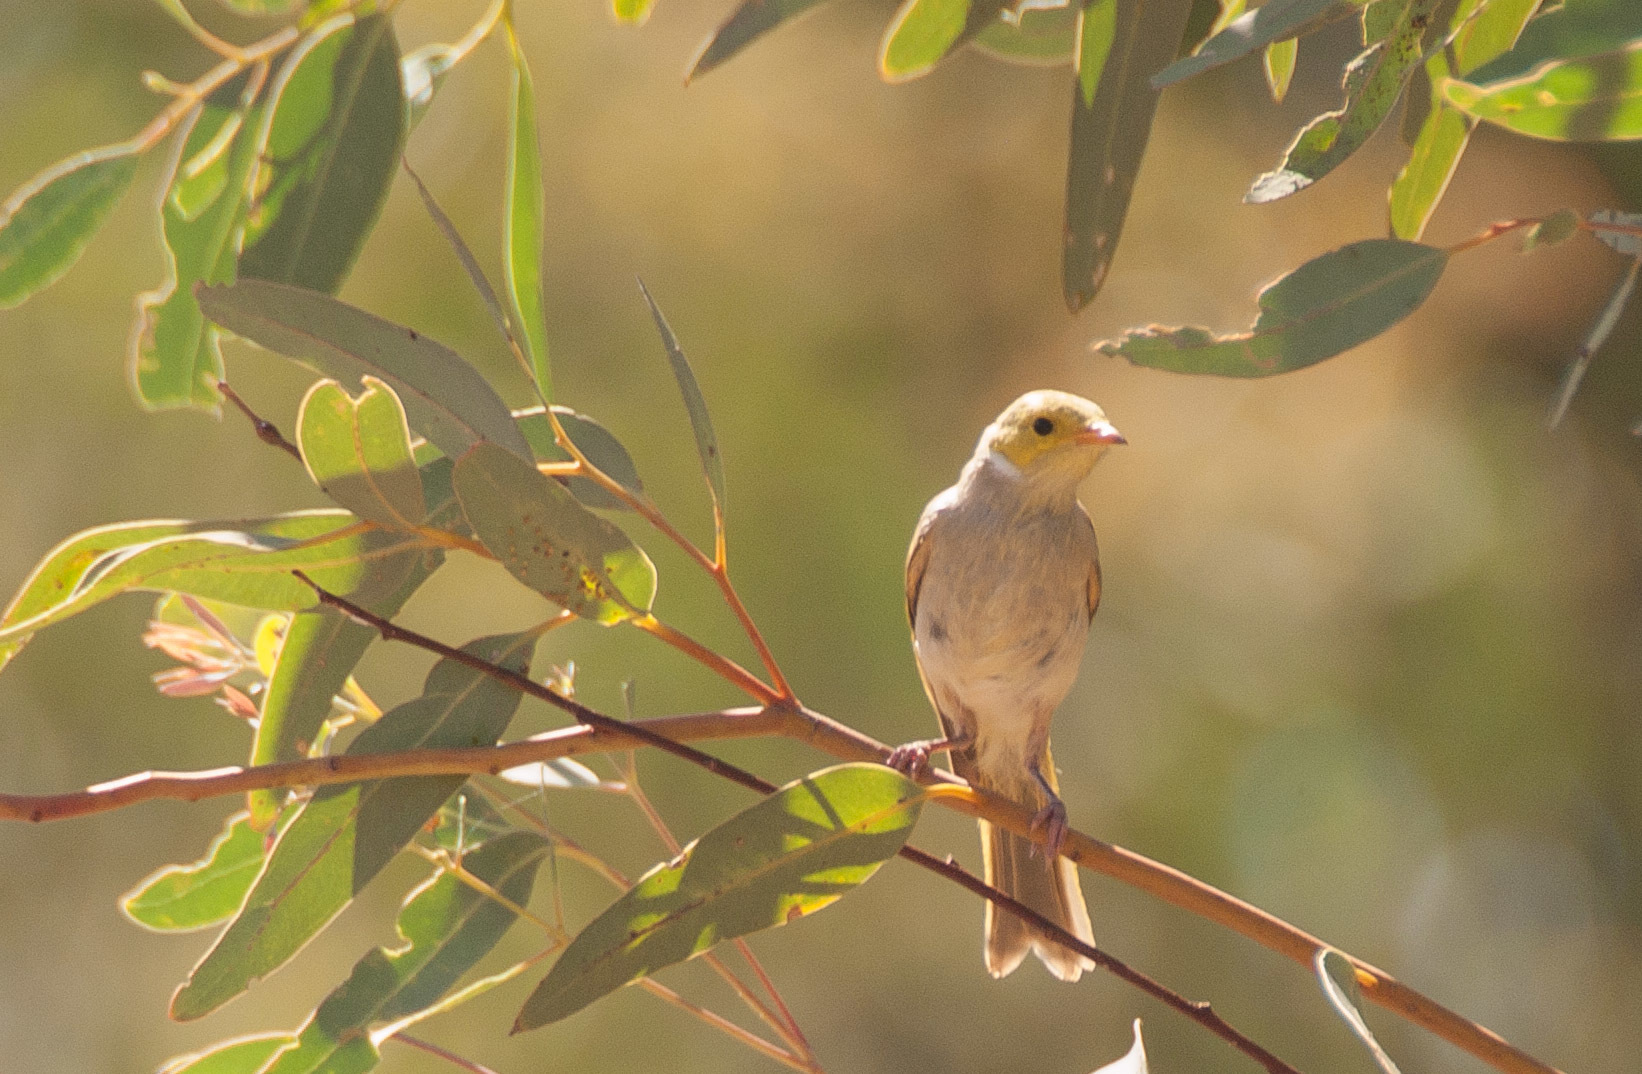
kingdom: Animalia
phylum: Chordata
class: Aves
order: Passeriformes
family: Meliphagidae
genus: Ptilotula
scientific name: Ptilotula penicillata
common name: White-plumed honeyeater
